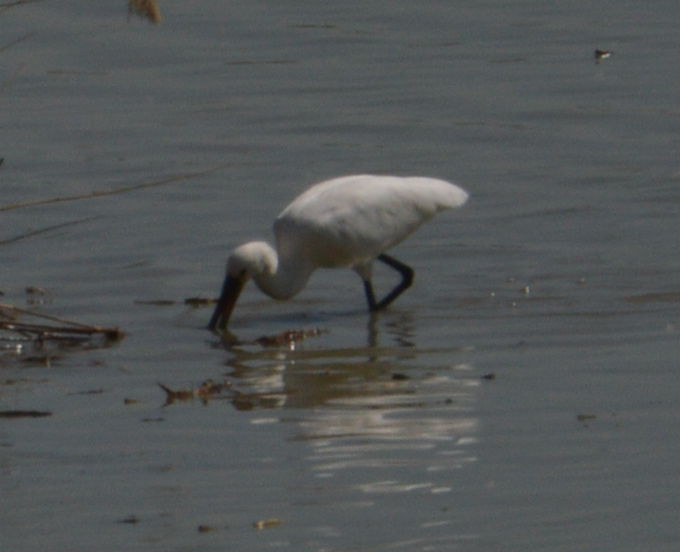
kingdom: Animalia
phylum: Chordata
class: Aves
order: Pelecaniformes
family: Threskiornithidae
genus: Platalea
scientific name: Platalea leucorodia
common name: Eurasian spoonbill
